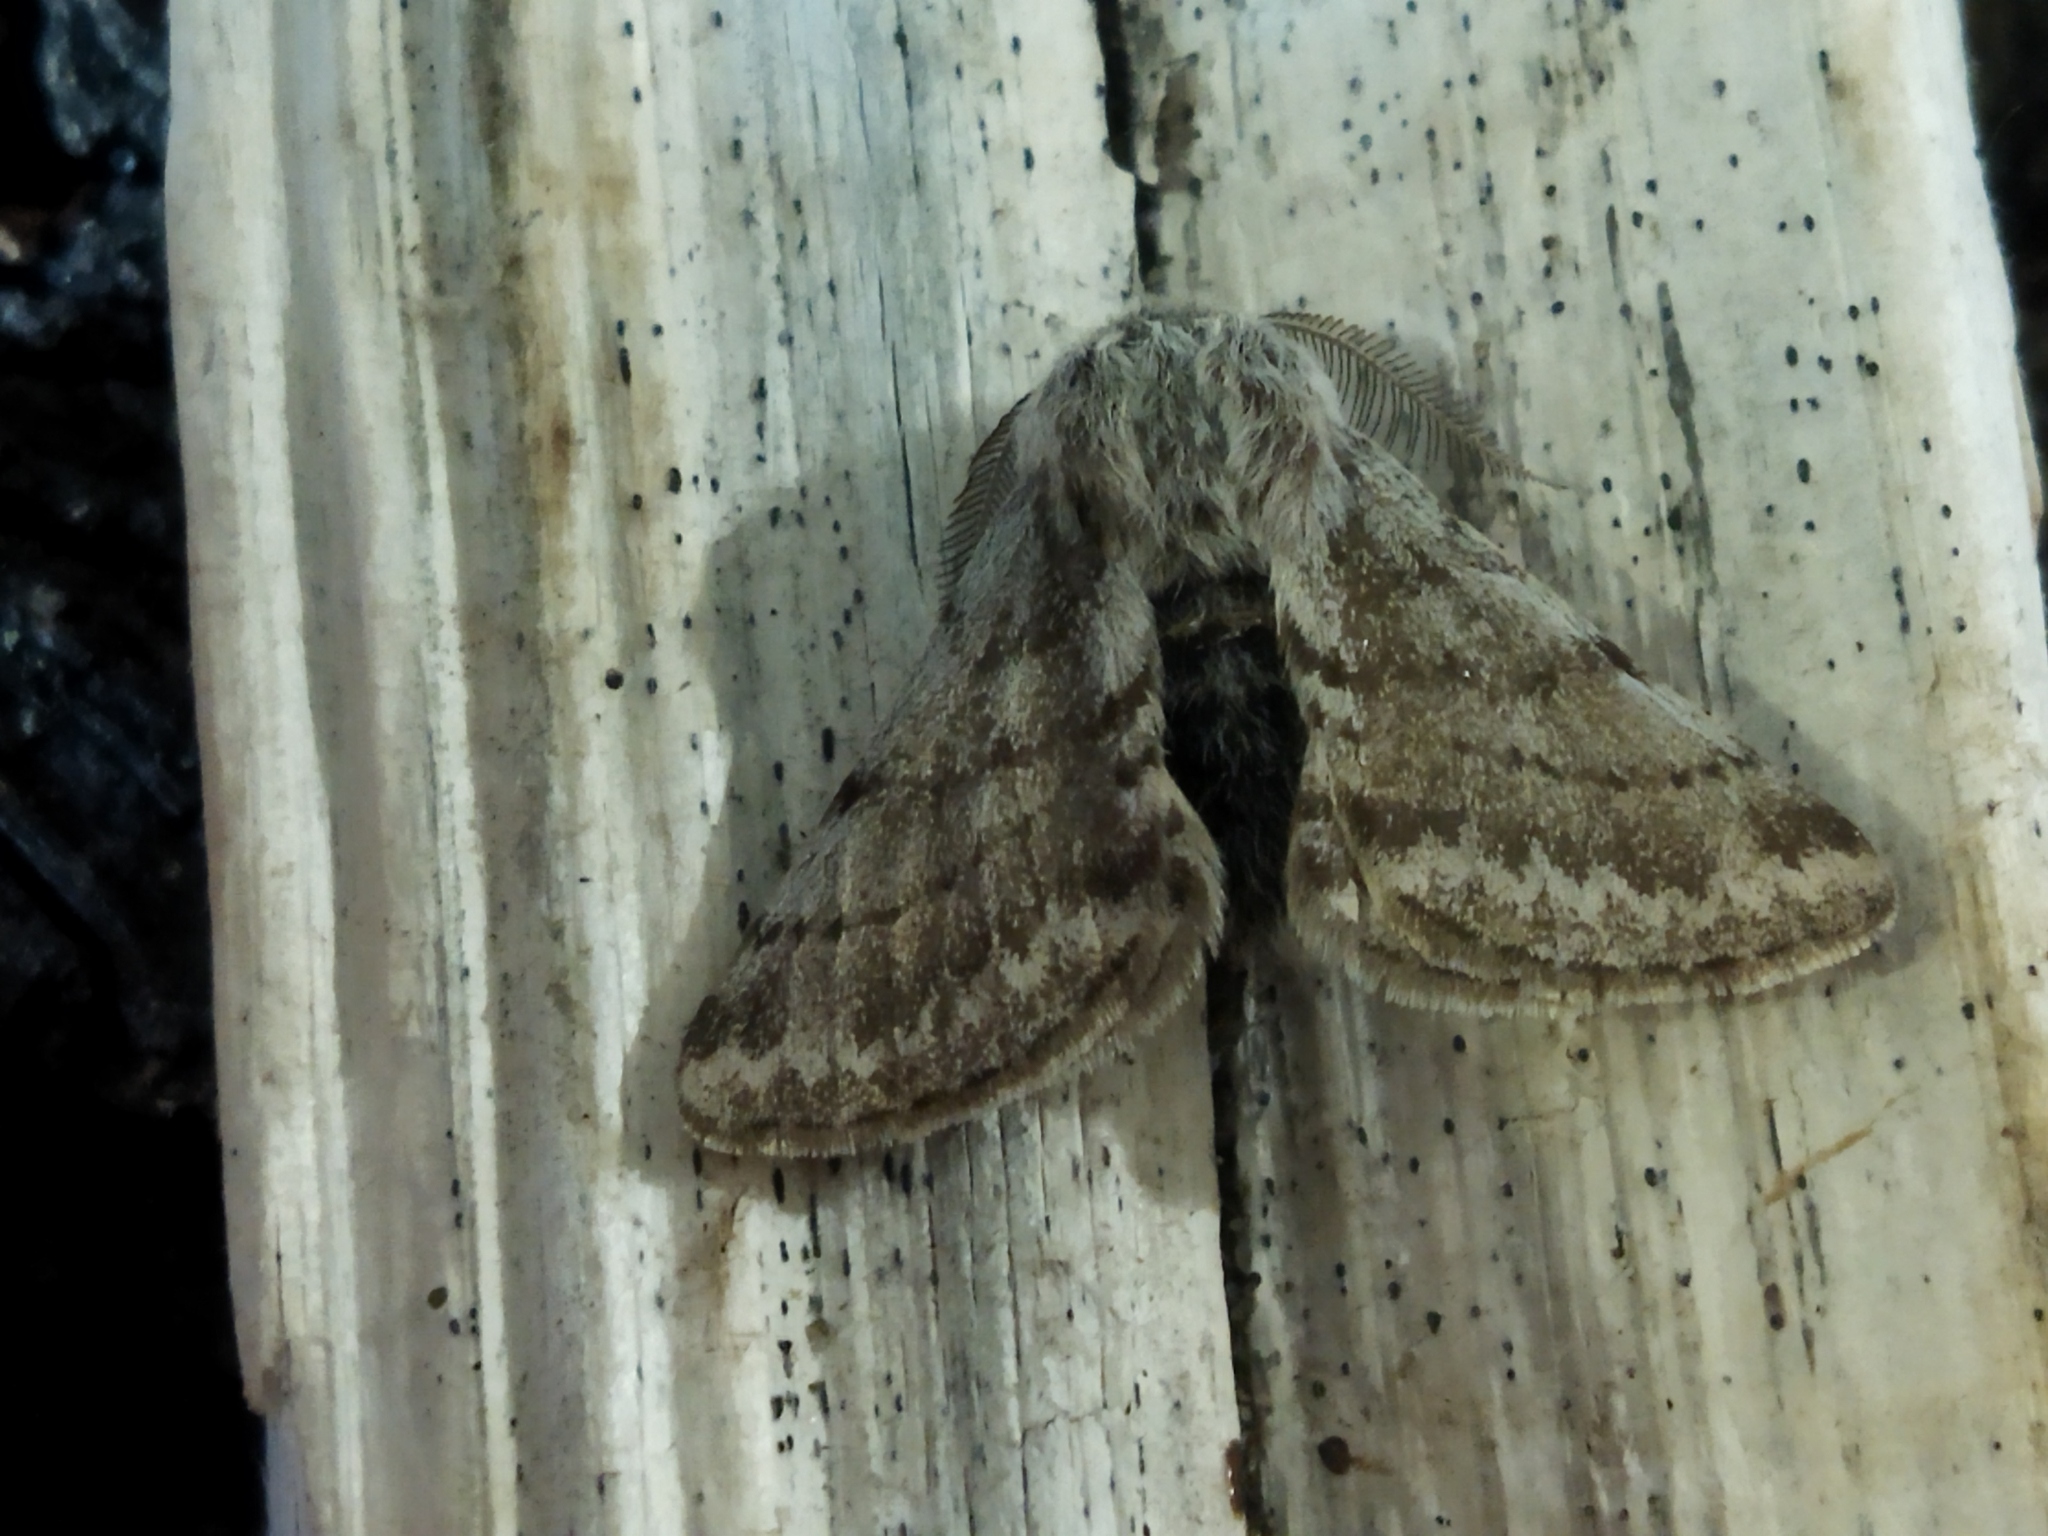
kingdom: Animalia
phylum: Arthropoda
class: Insecta
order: Lepidoptera
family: Geometridae
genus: Lycia
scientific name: Lycia graecarius
